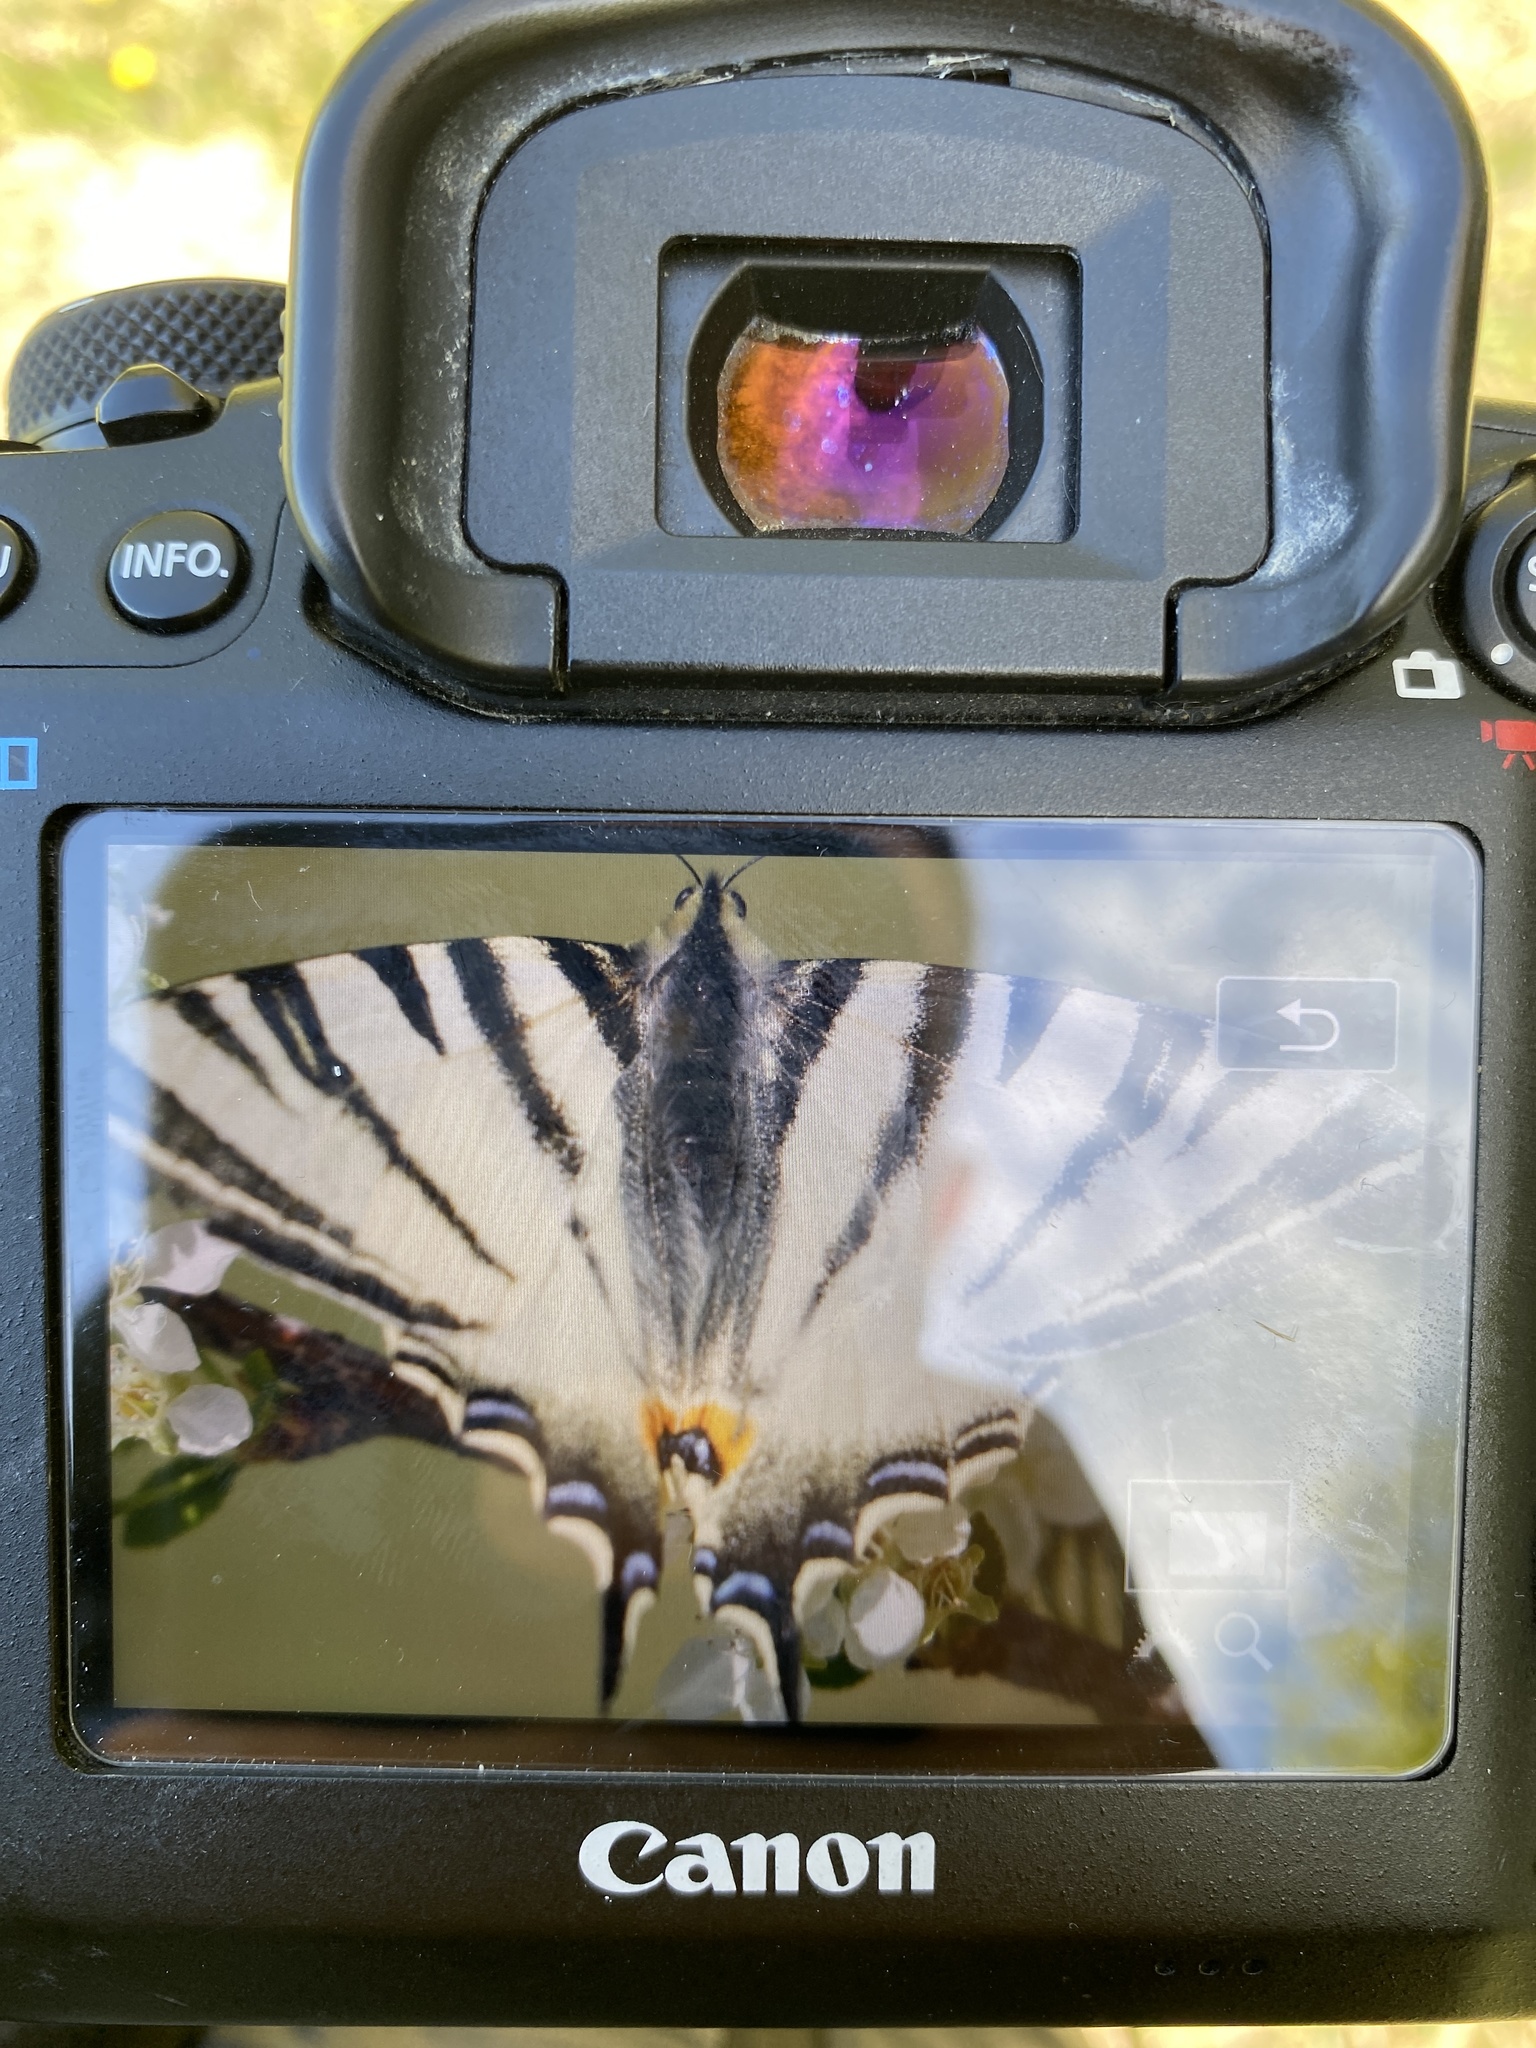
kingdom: Animalia
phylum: Arthropoda
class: Insecta
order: Lepidoptera
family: Papilionidae
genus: Iphiclides
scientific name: Iphiclides podalirius
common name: Scarce swallowtail
